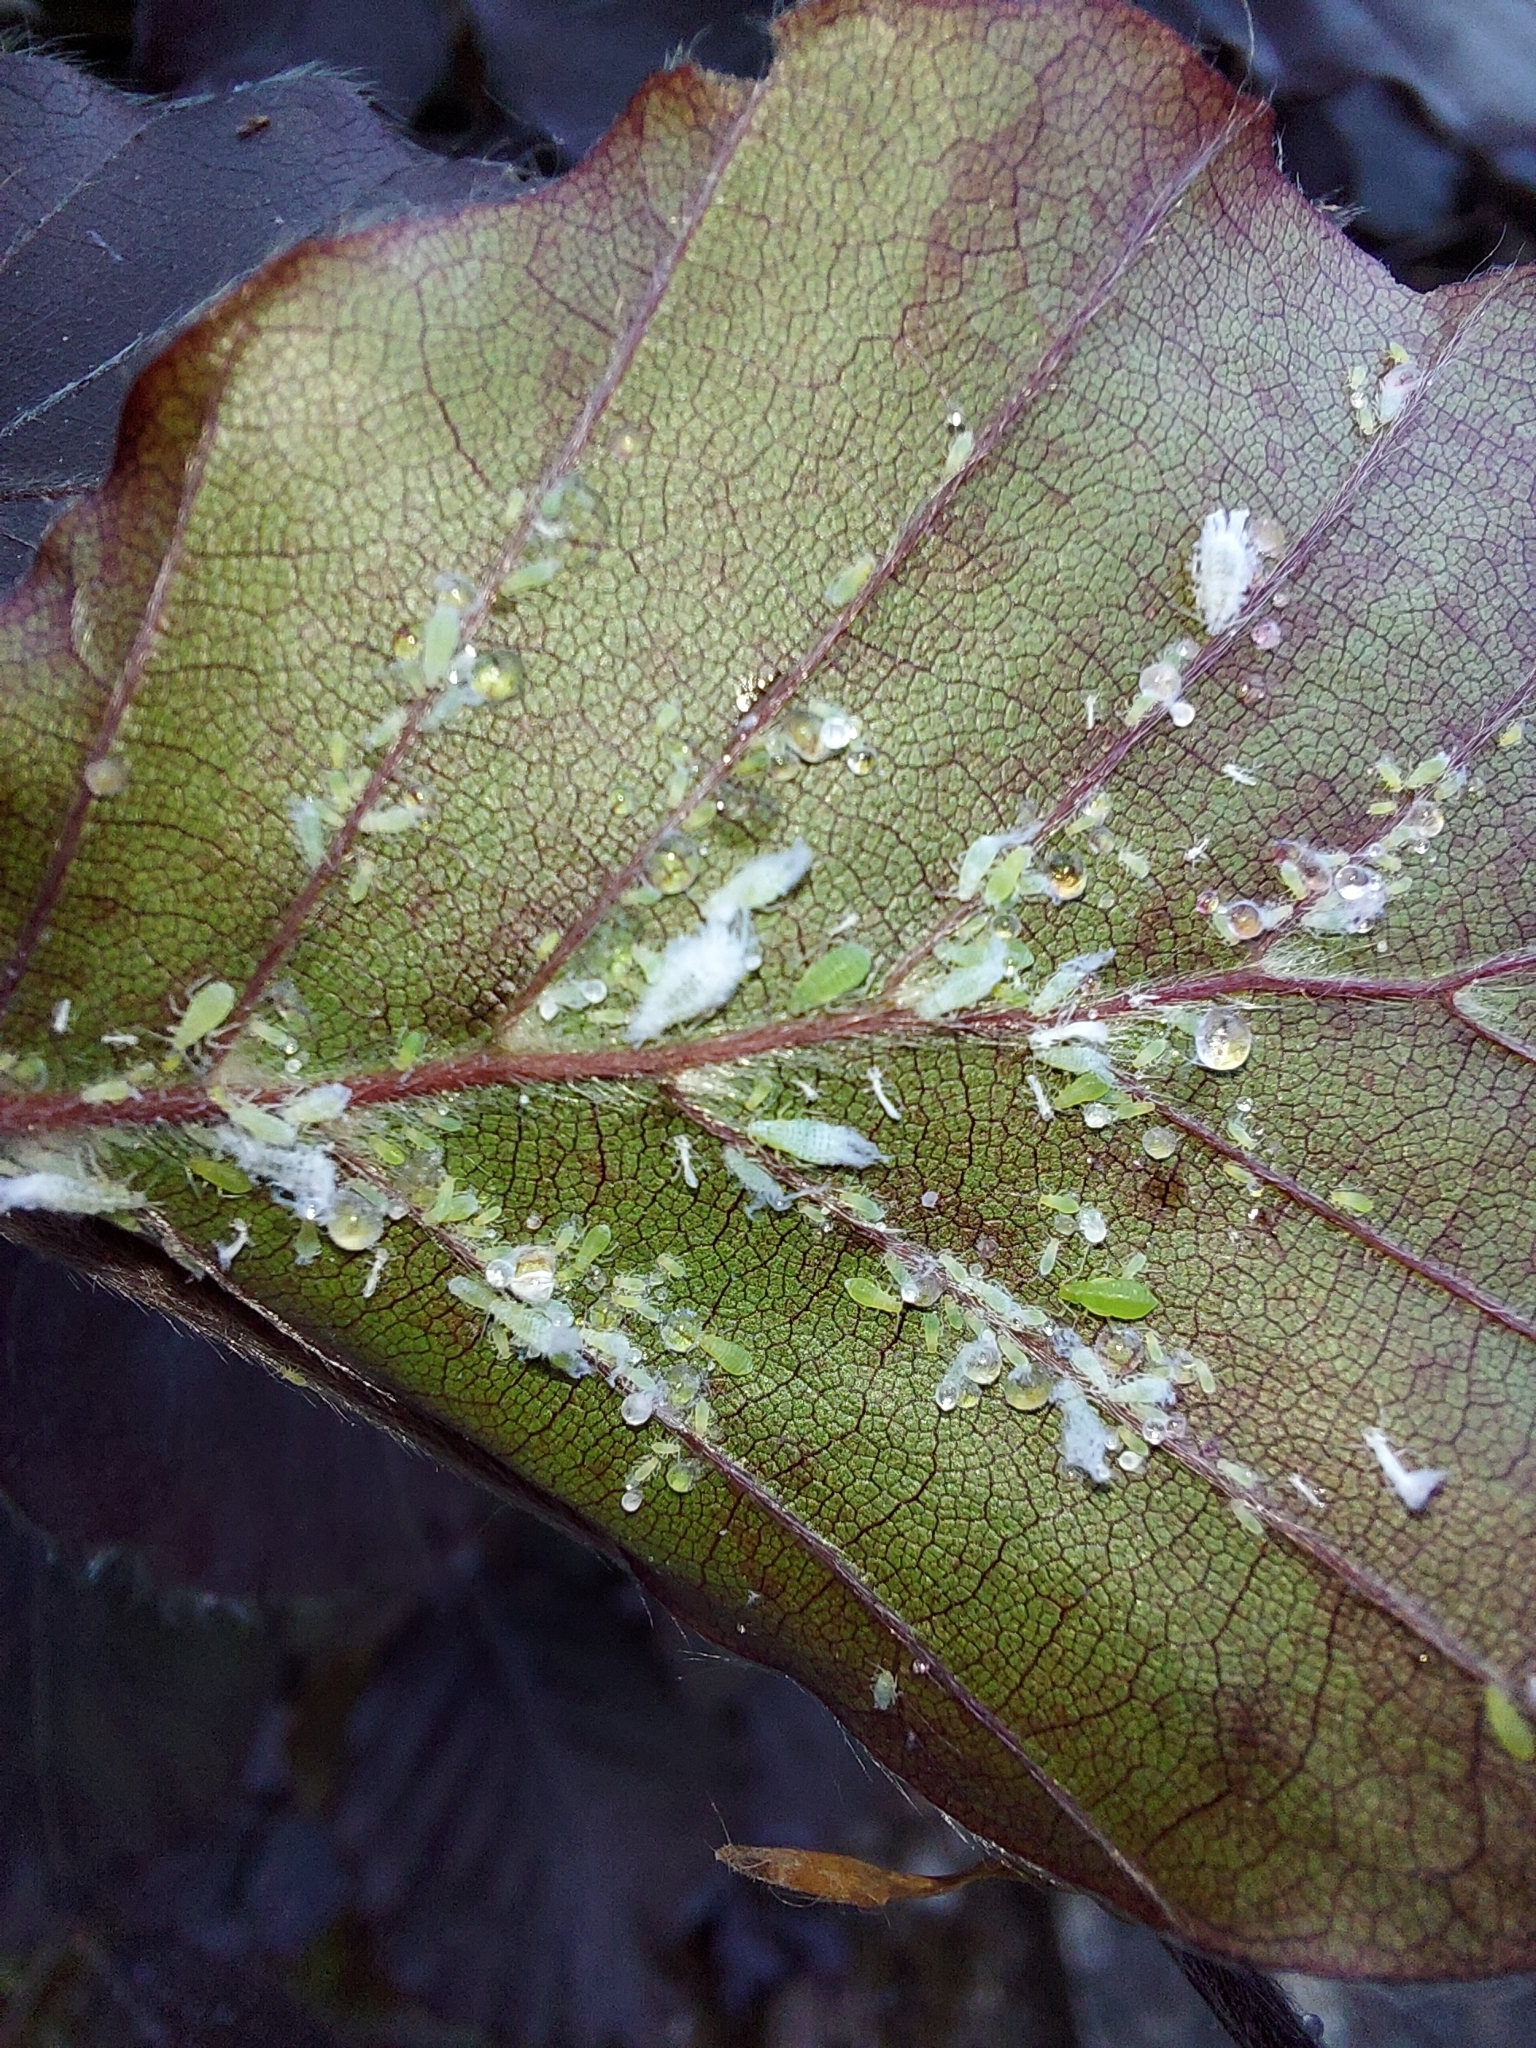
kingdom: Animalia
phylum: Arthropoda
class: Insecta
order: Hemiptera
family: Aphididae
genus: Phyllaphis
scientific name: Phyllaphis fagi
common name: Beech aphid
